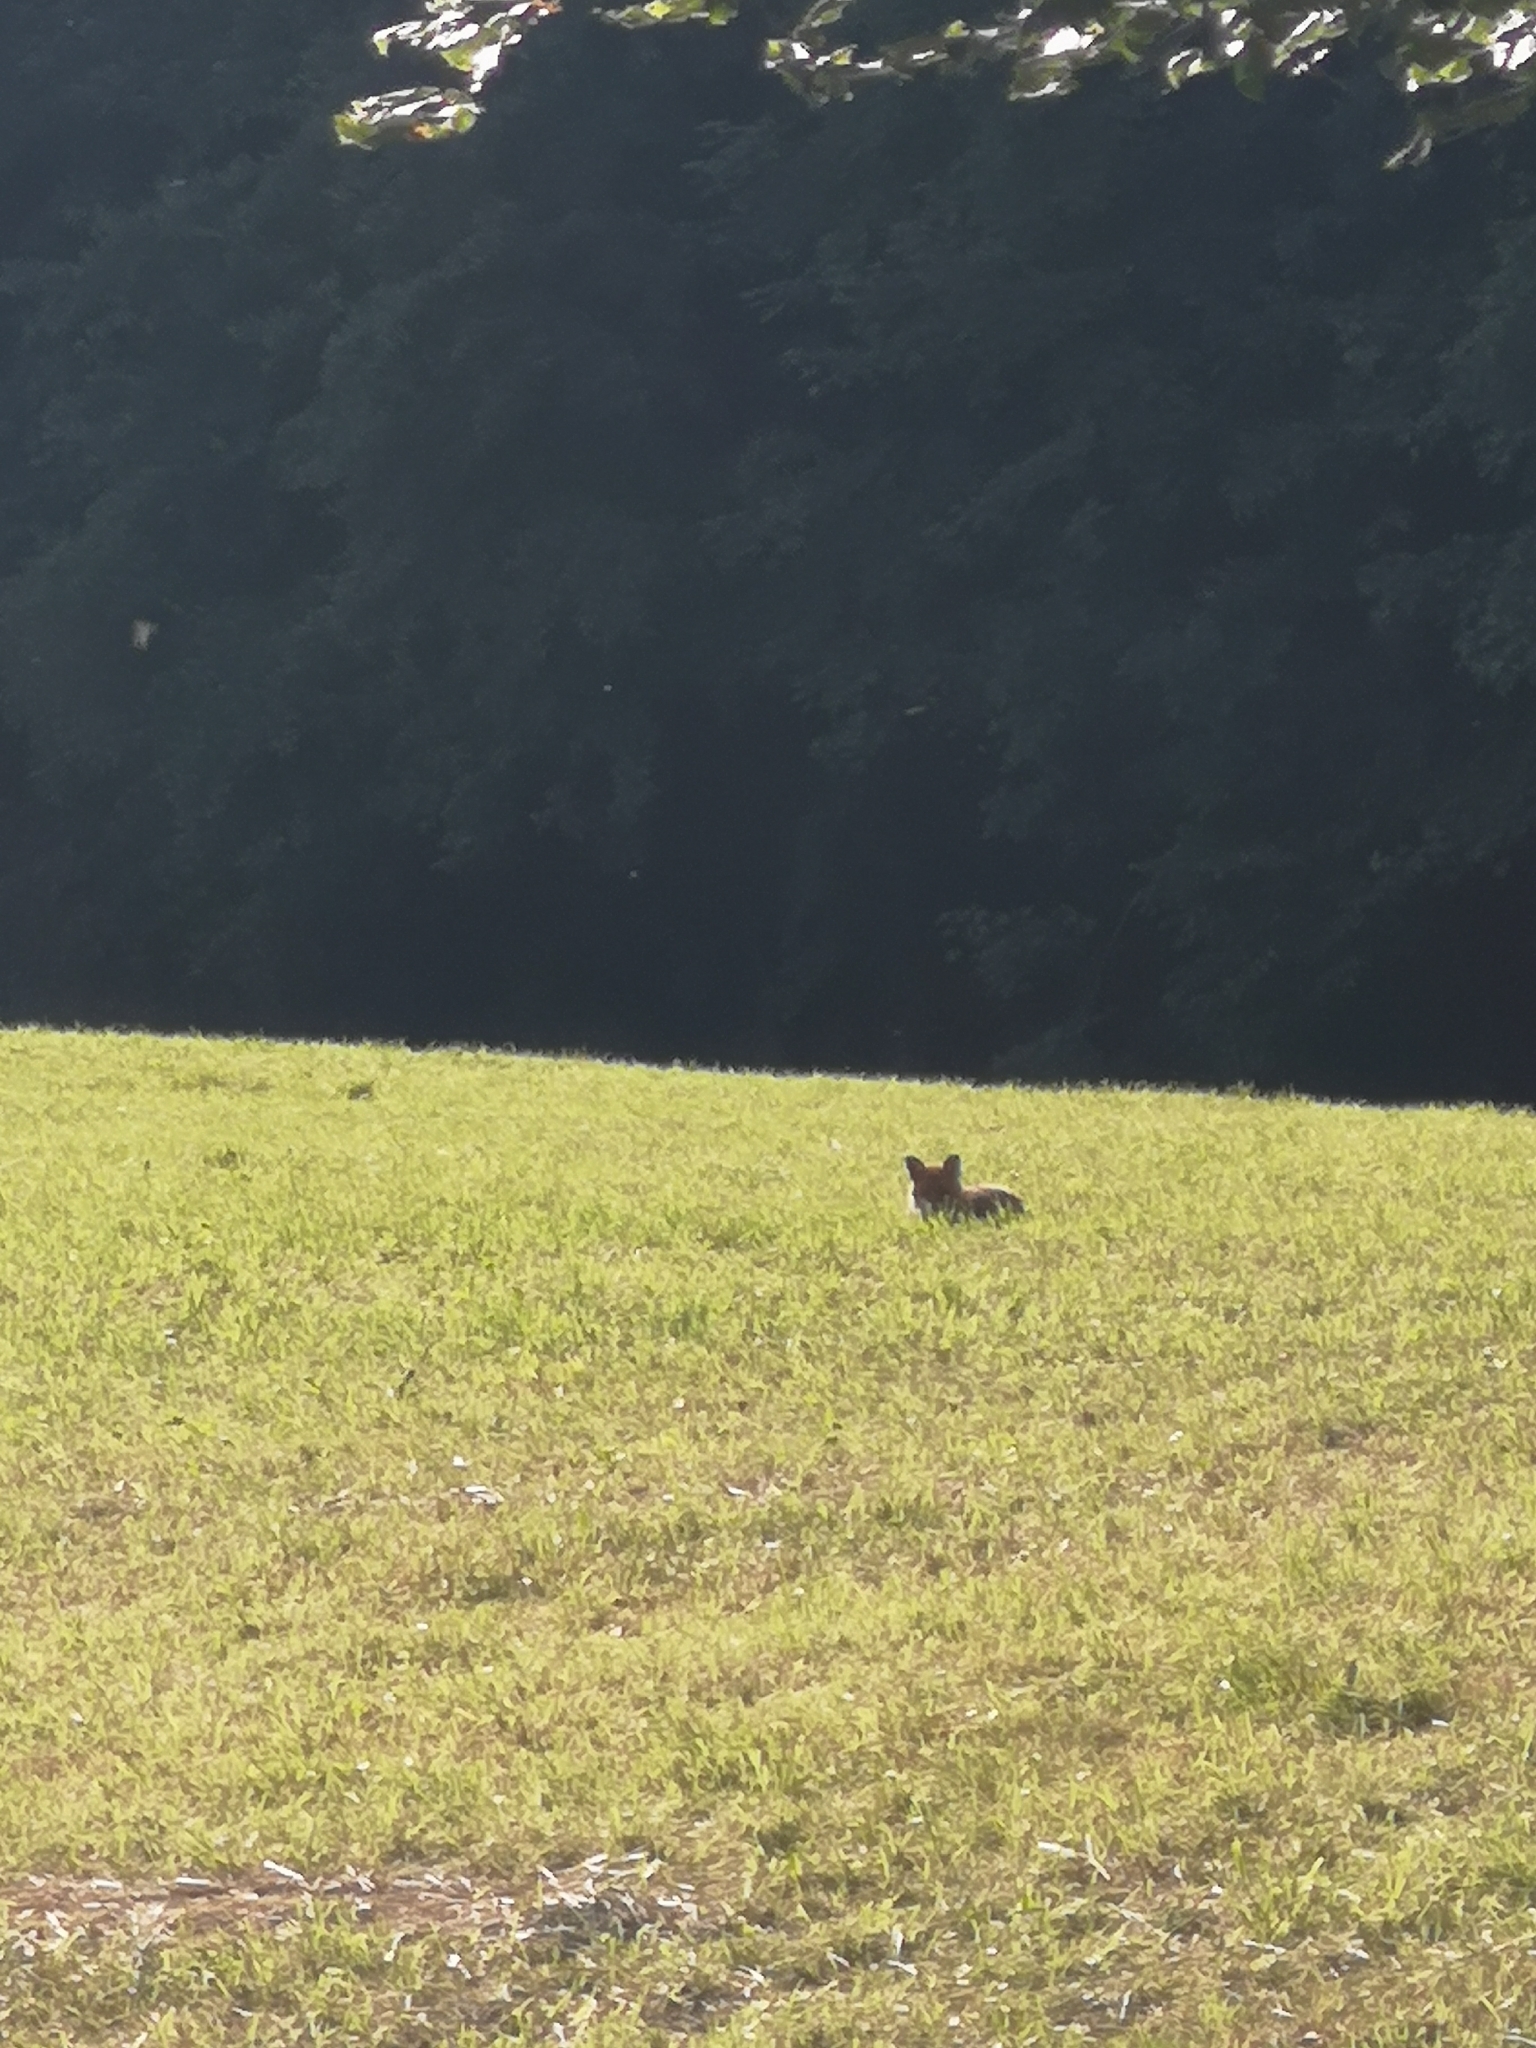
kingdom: Animalia
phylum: Chordata
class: Mammalia
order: Carnivora
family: Canidae
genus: Vulpes
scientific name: Vulpes vulpes
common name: Red fox
